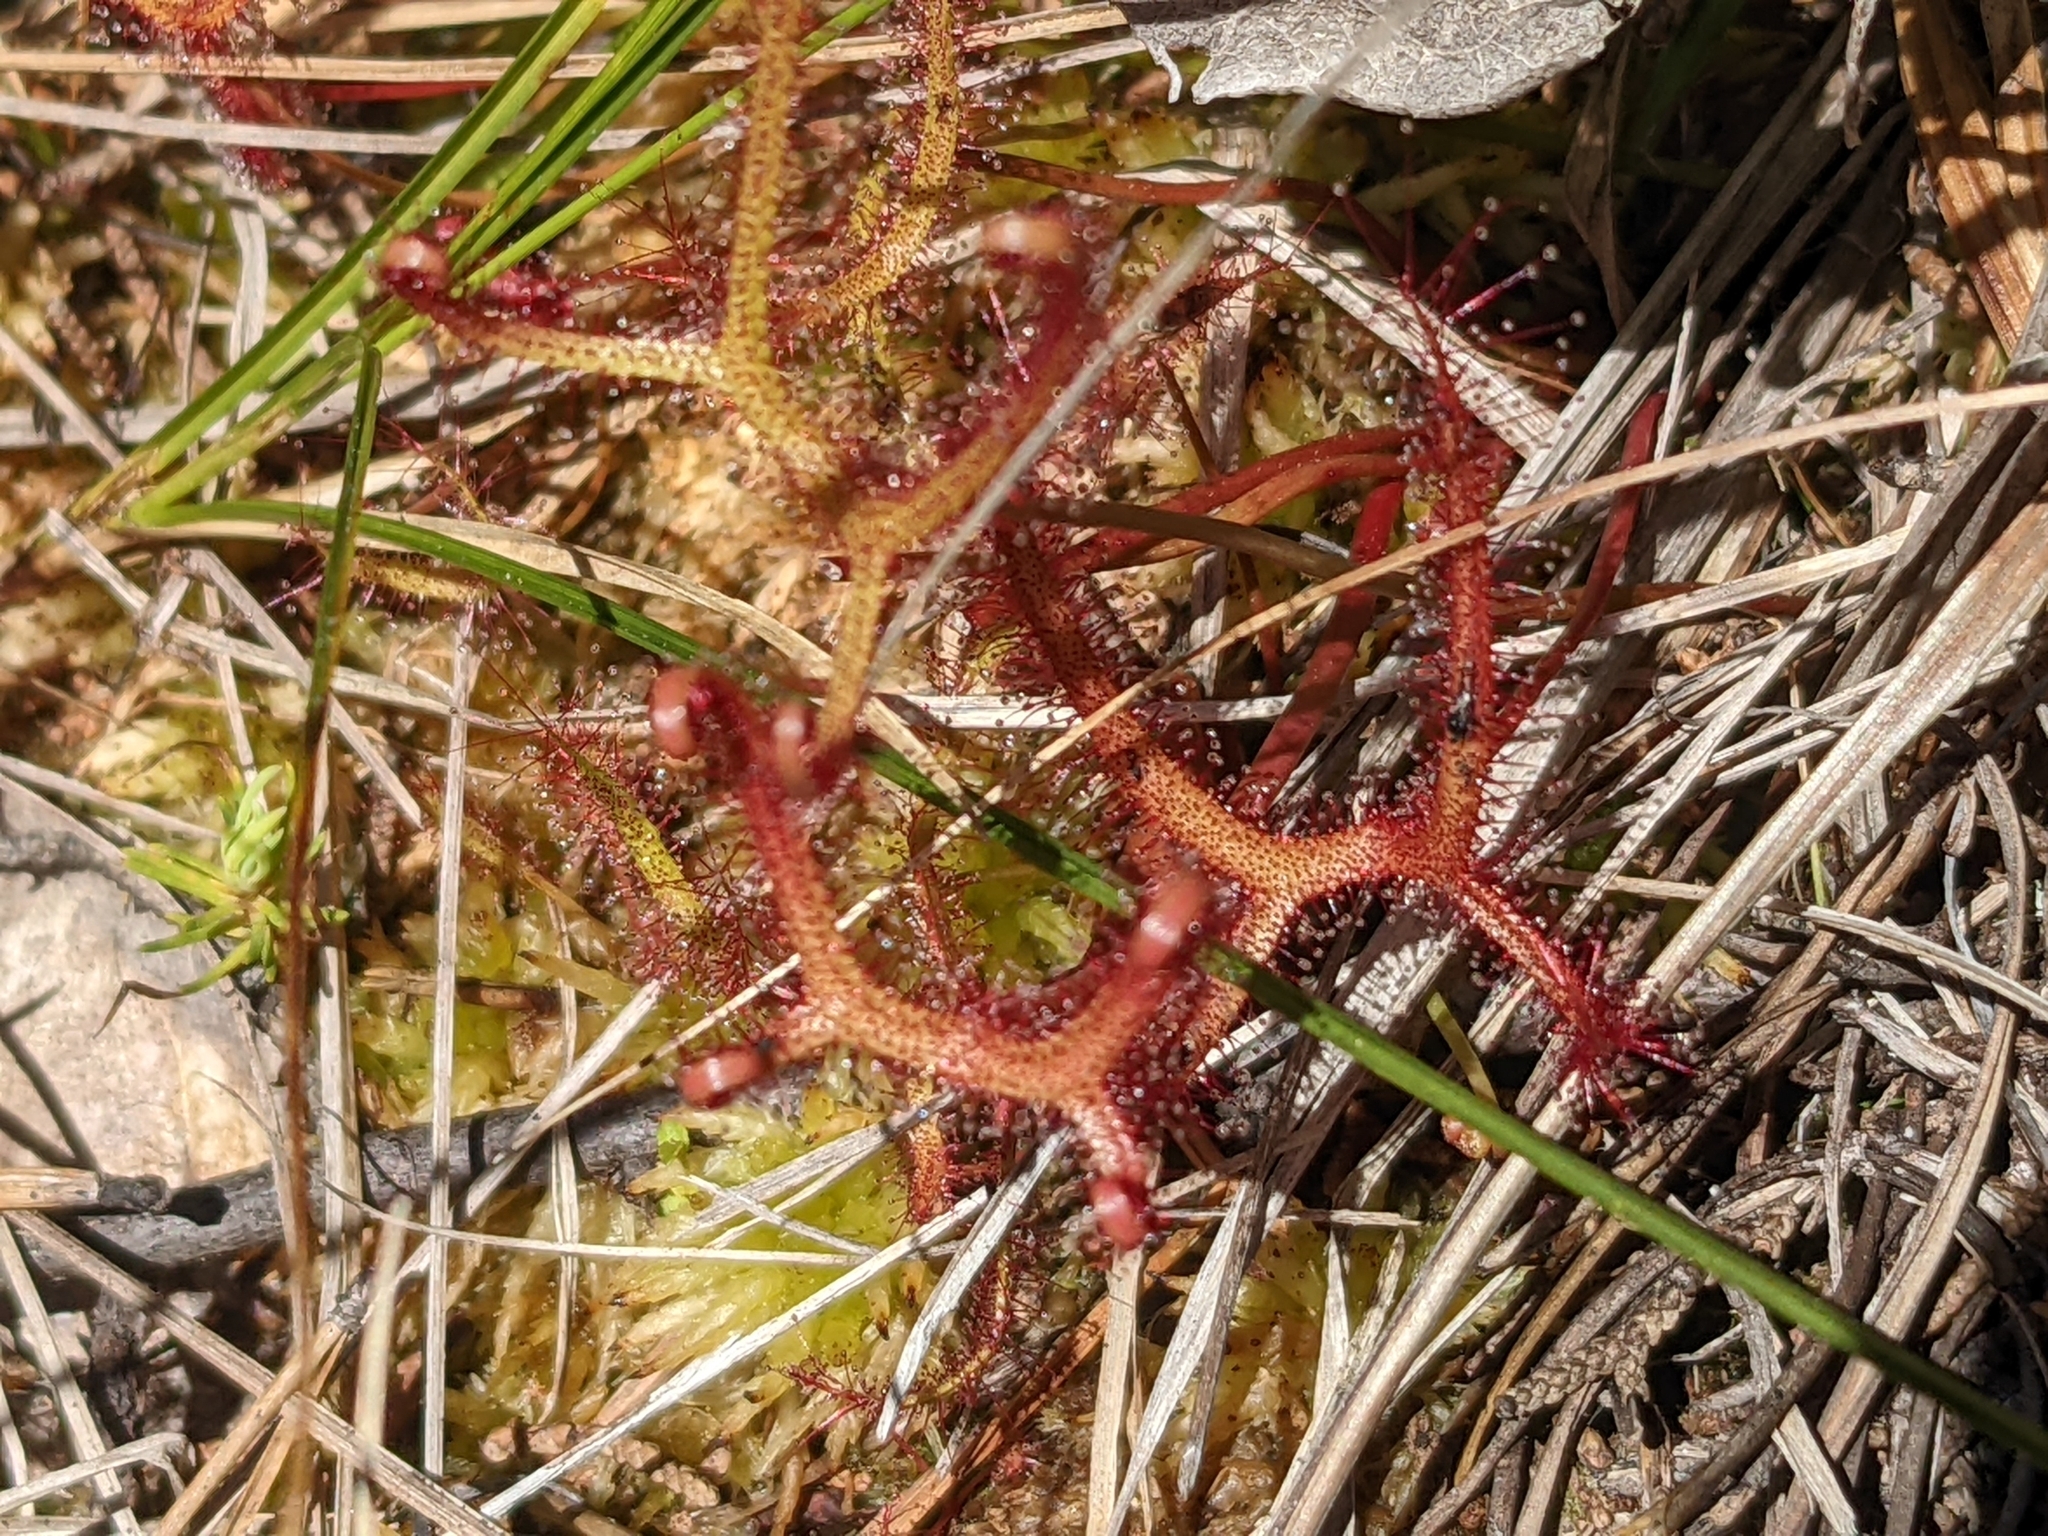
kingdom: Plantae
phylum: Tracheophyta
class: Magnoliopsida
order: Caryophyllales
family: Droseraceae
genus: Drosera
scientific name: Drosera binata
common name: Forked sundew
